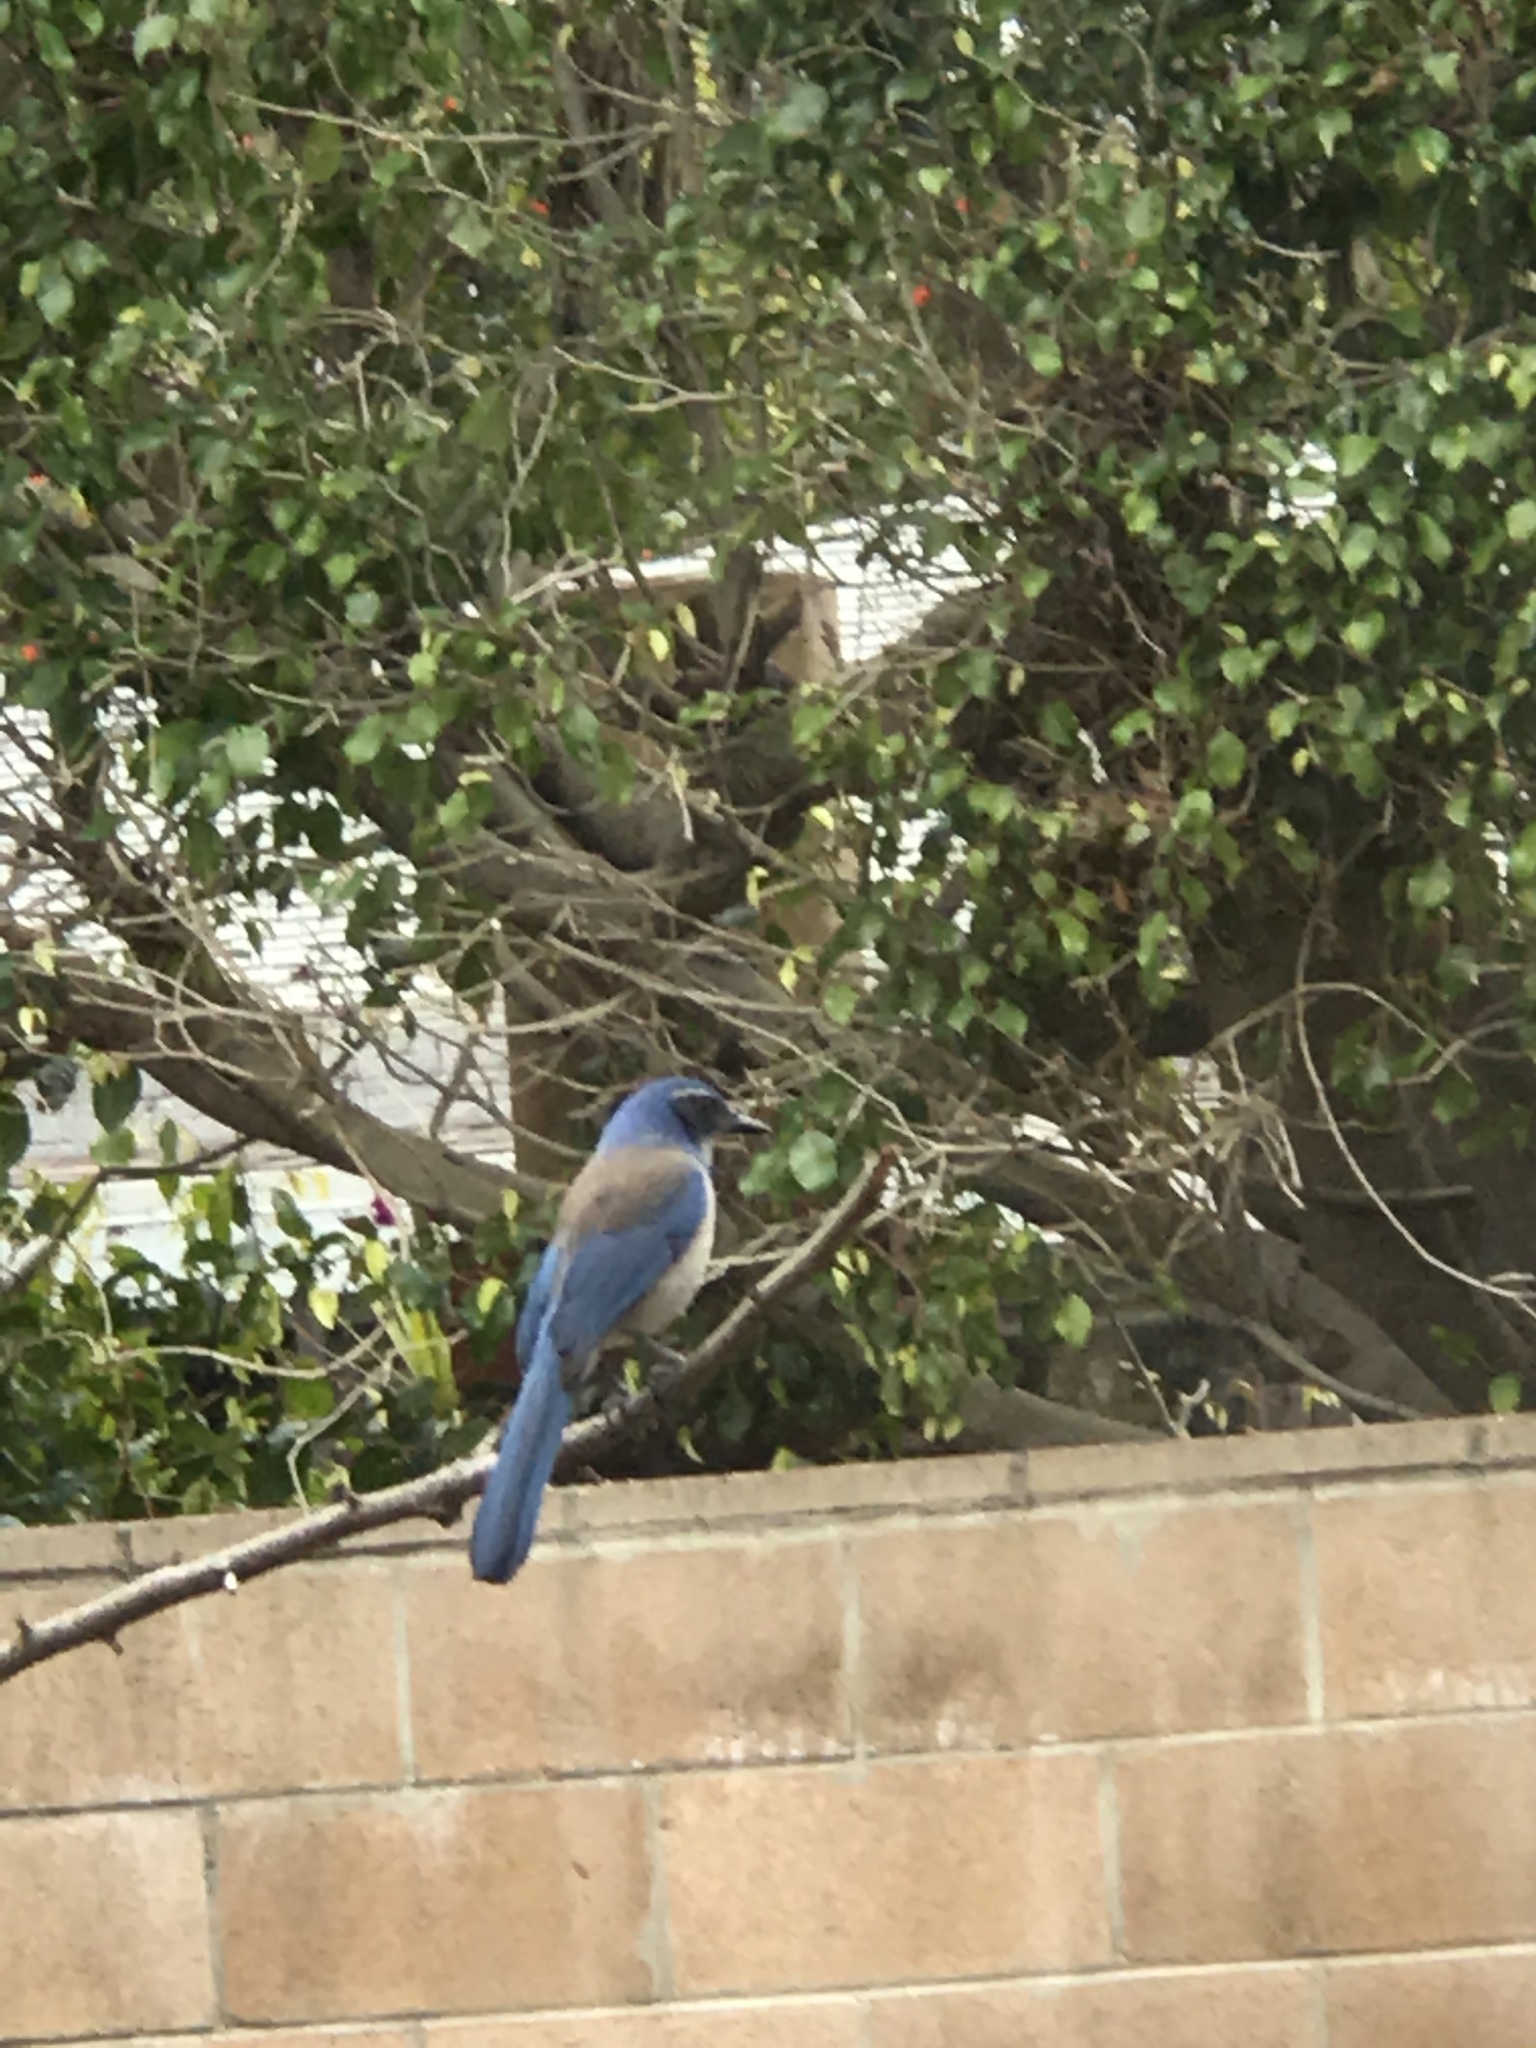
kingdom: Animalia
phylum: Chordata
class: Aves
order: Passeriformes
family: Corvidae
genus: Aphelocoma
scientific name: Aphelocoma californica
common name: California scrub-jay
